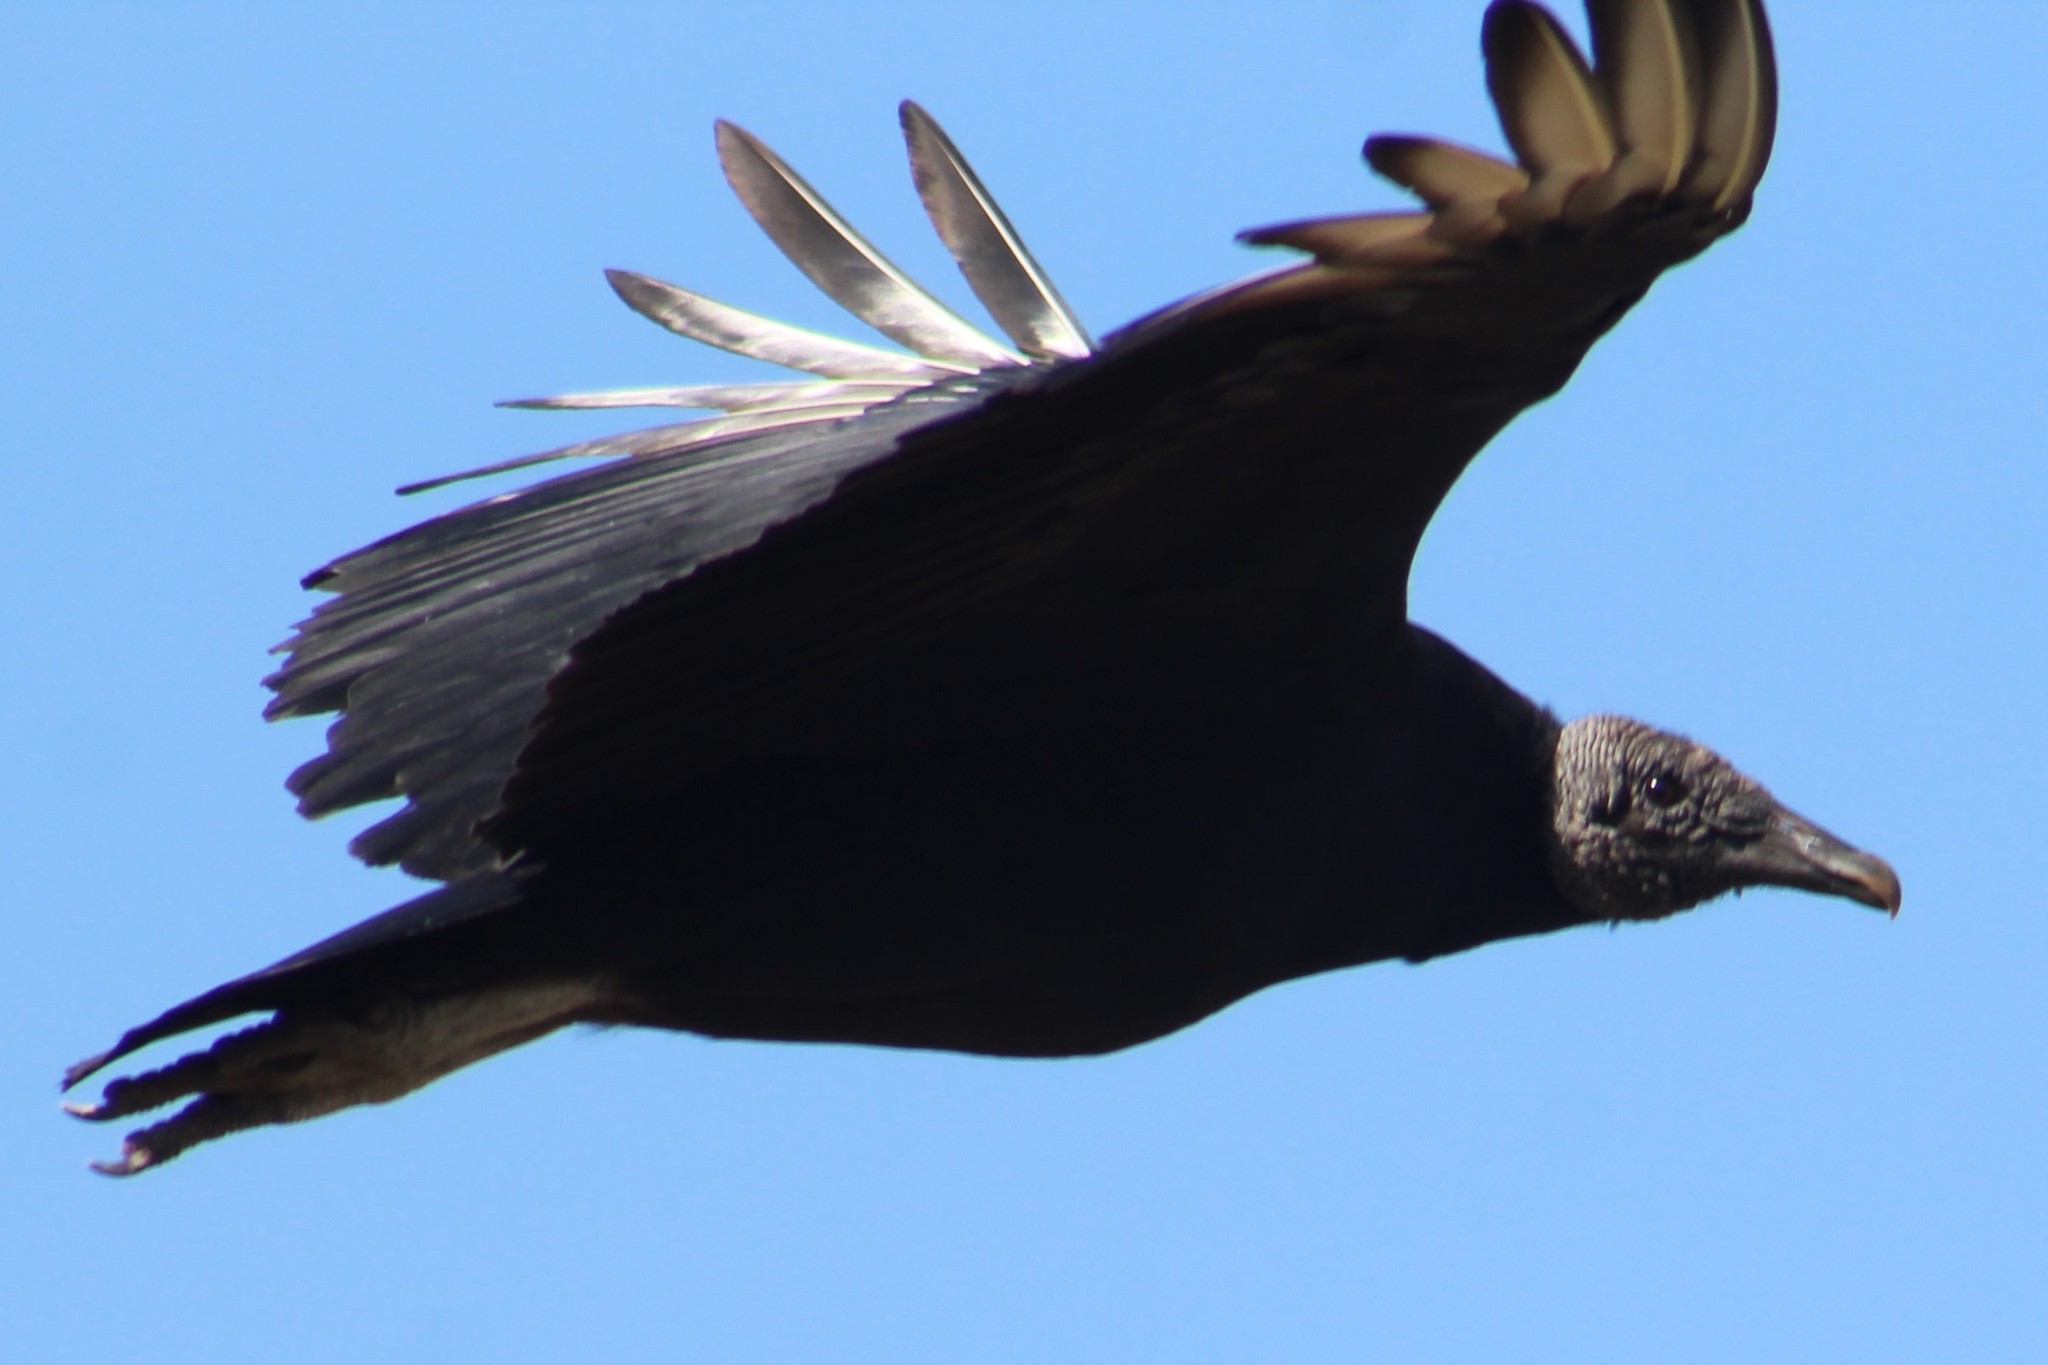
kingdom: Animalia
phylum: Chordata
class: Aves
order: Accipitriformes
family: Cathartidae
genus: Coragyps
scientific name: Coragyps atratus
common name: Black vulture
